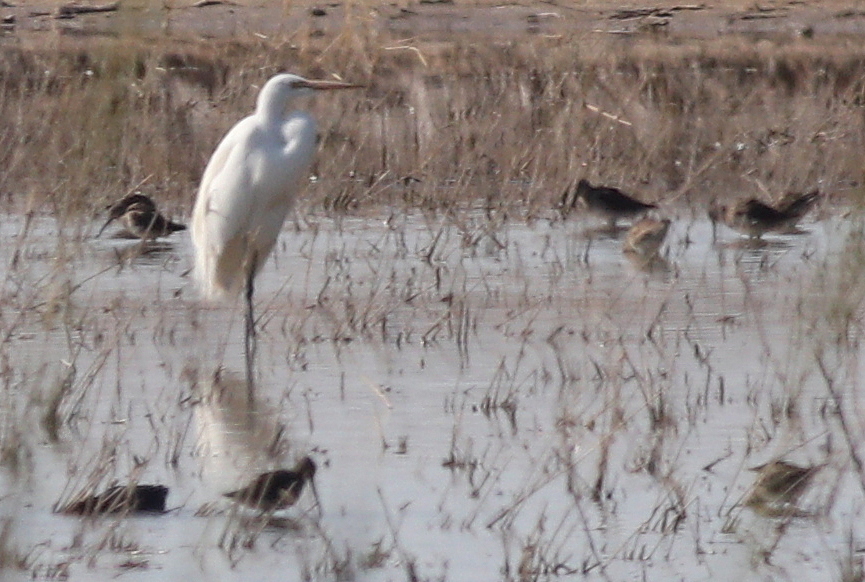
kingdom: Animalia
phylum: Chordata
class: Aves
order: Pelecaniformes
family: Ardeidae
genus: Ardea
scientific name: Ardea alba
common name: Great egret
